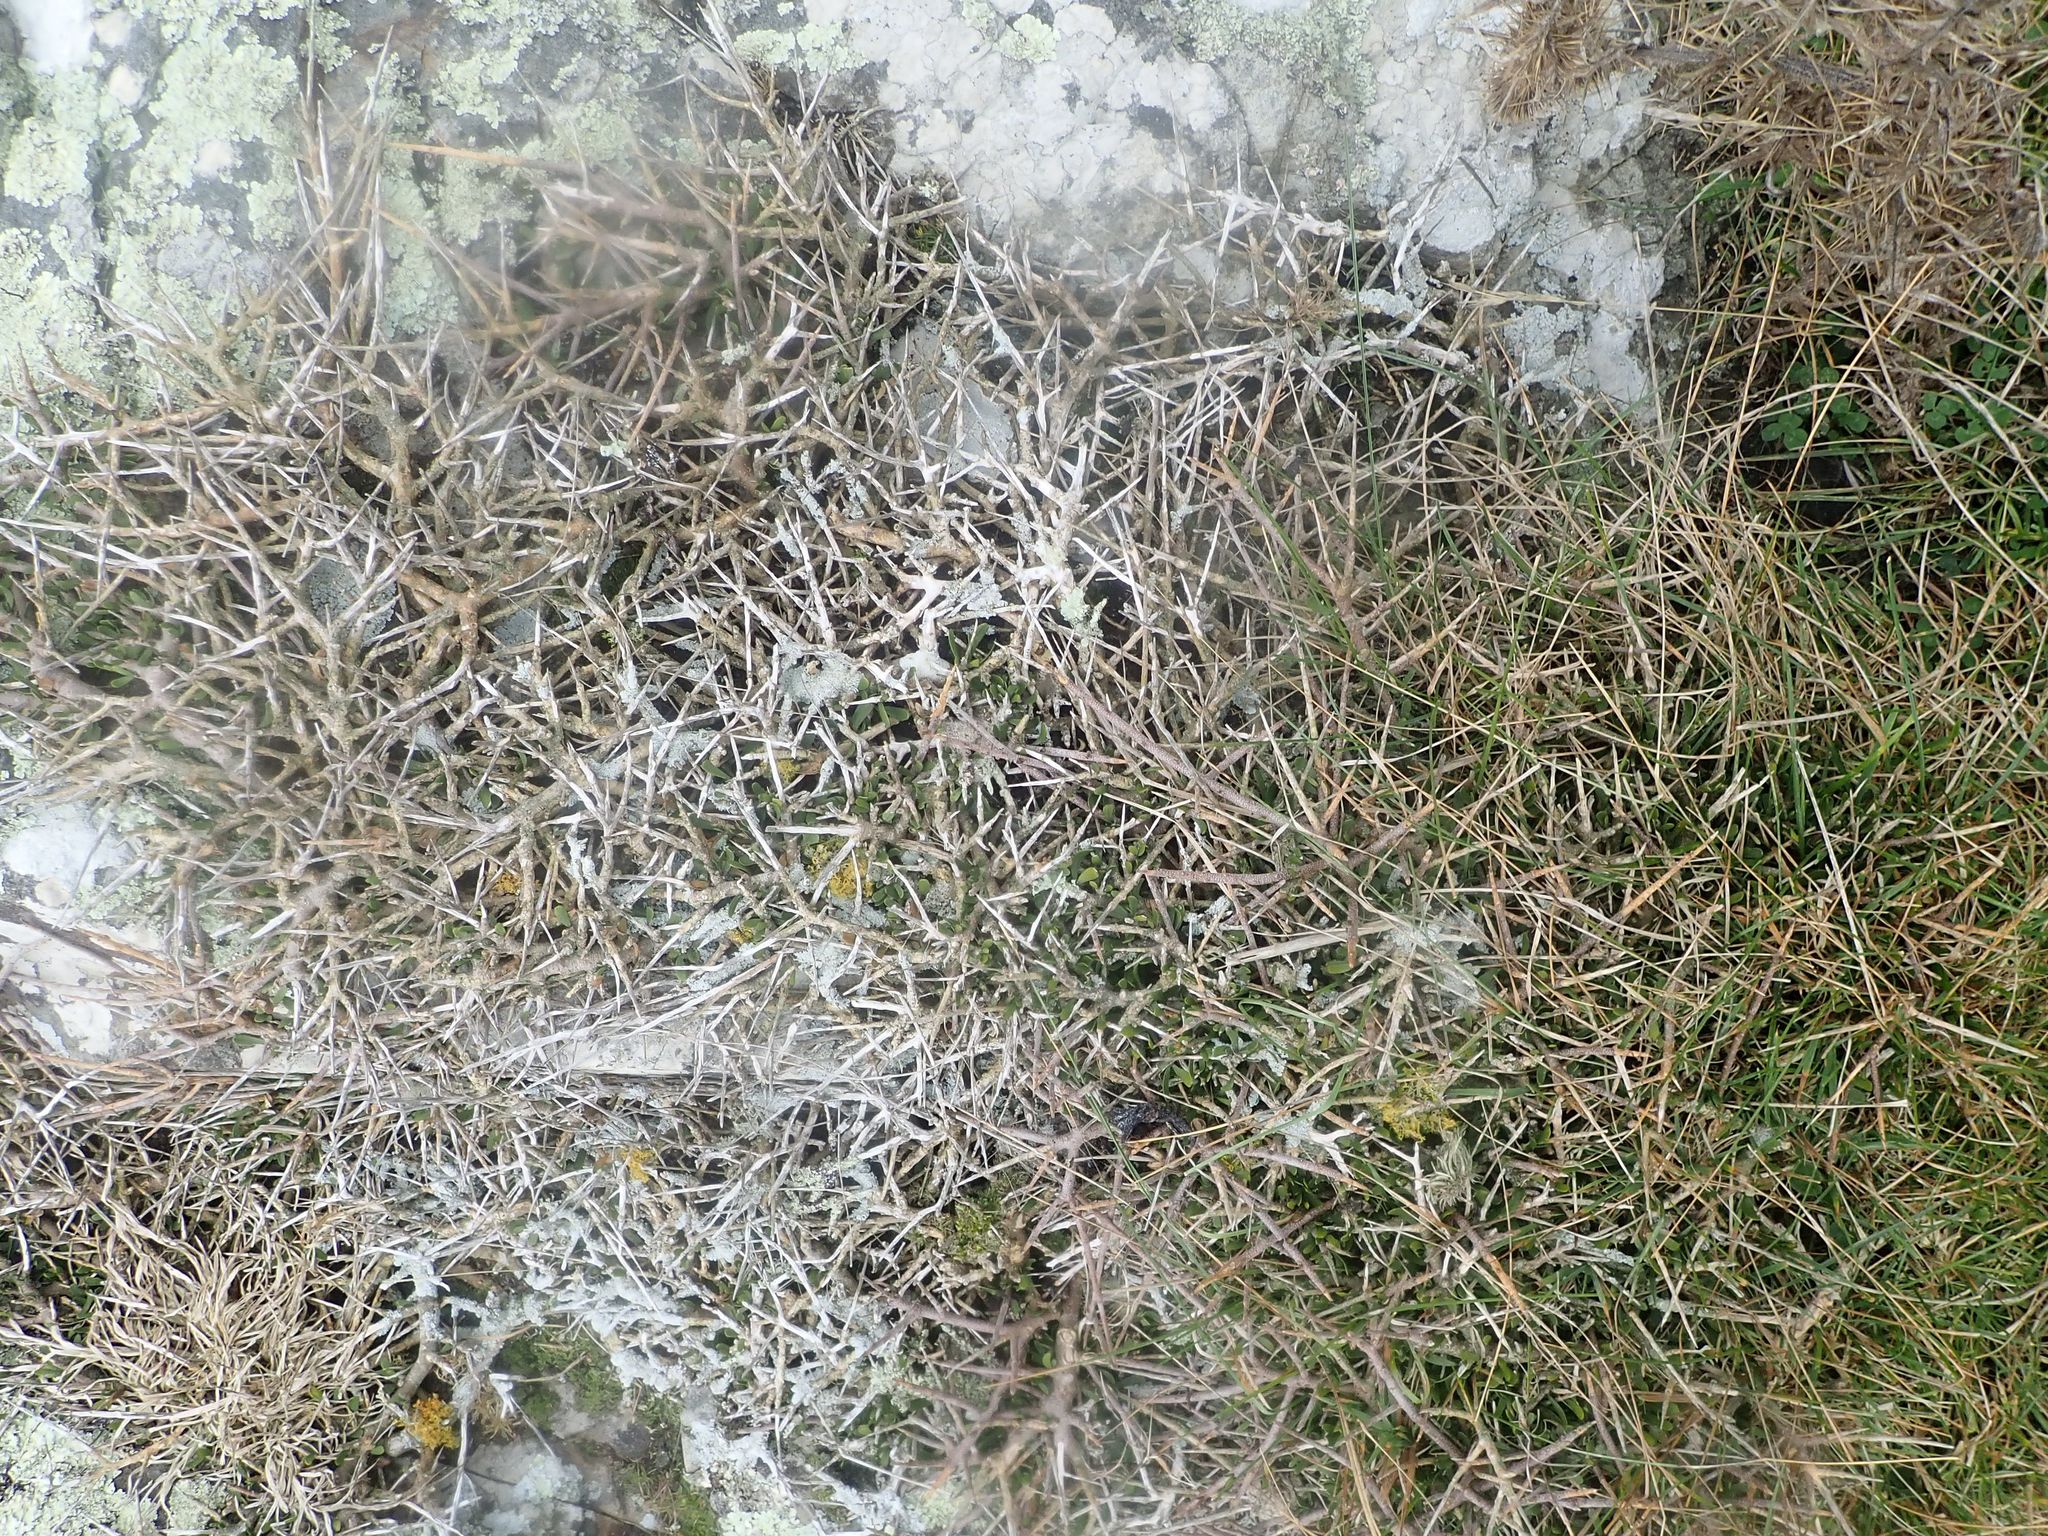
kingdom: Plantae
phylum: Tracheophyta
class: Magnoliopsida
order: Malpighiales
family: Violaceae
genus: Melicytus
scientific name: Melicytus alpinus
